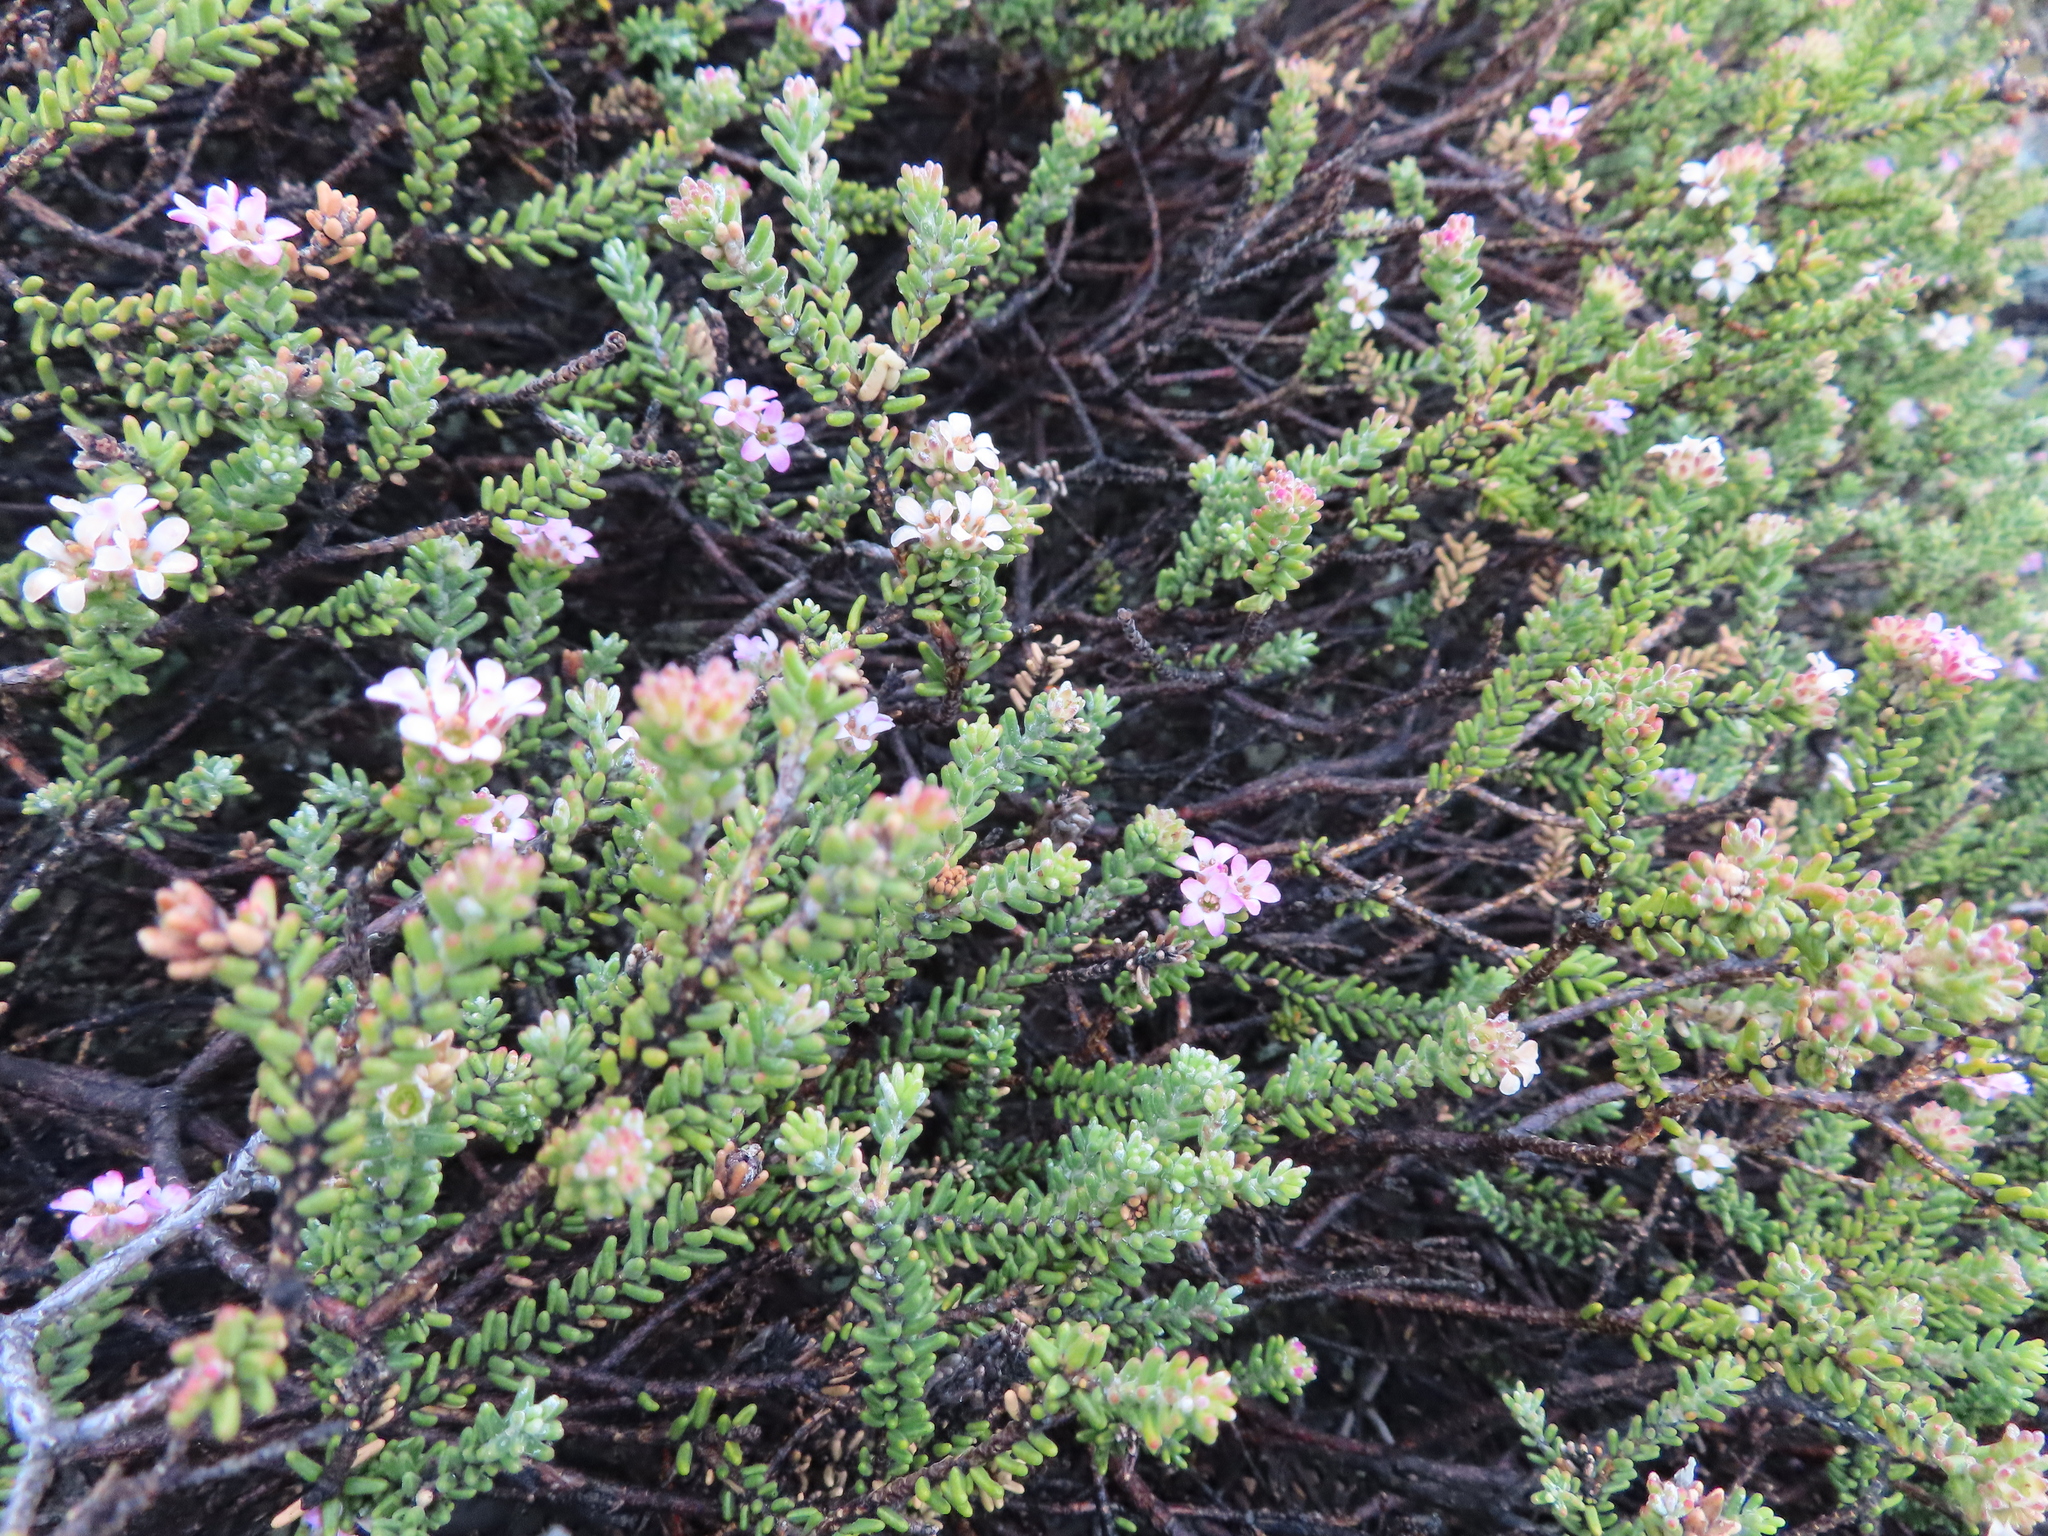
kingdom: Plantae
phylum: Tracheophyta
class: Magnoliopsida
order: Sapindales
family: Rutaceae
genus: Acmadenia
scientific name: Acmadenia teretifolia
